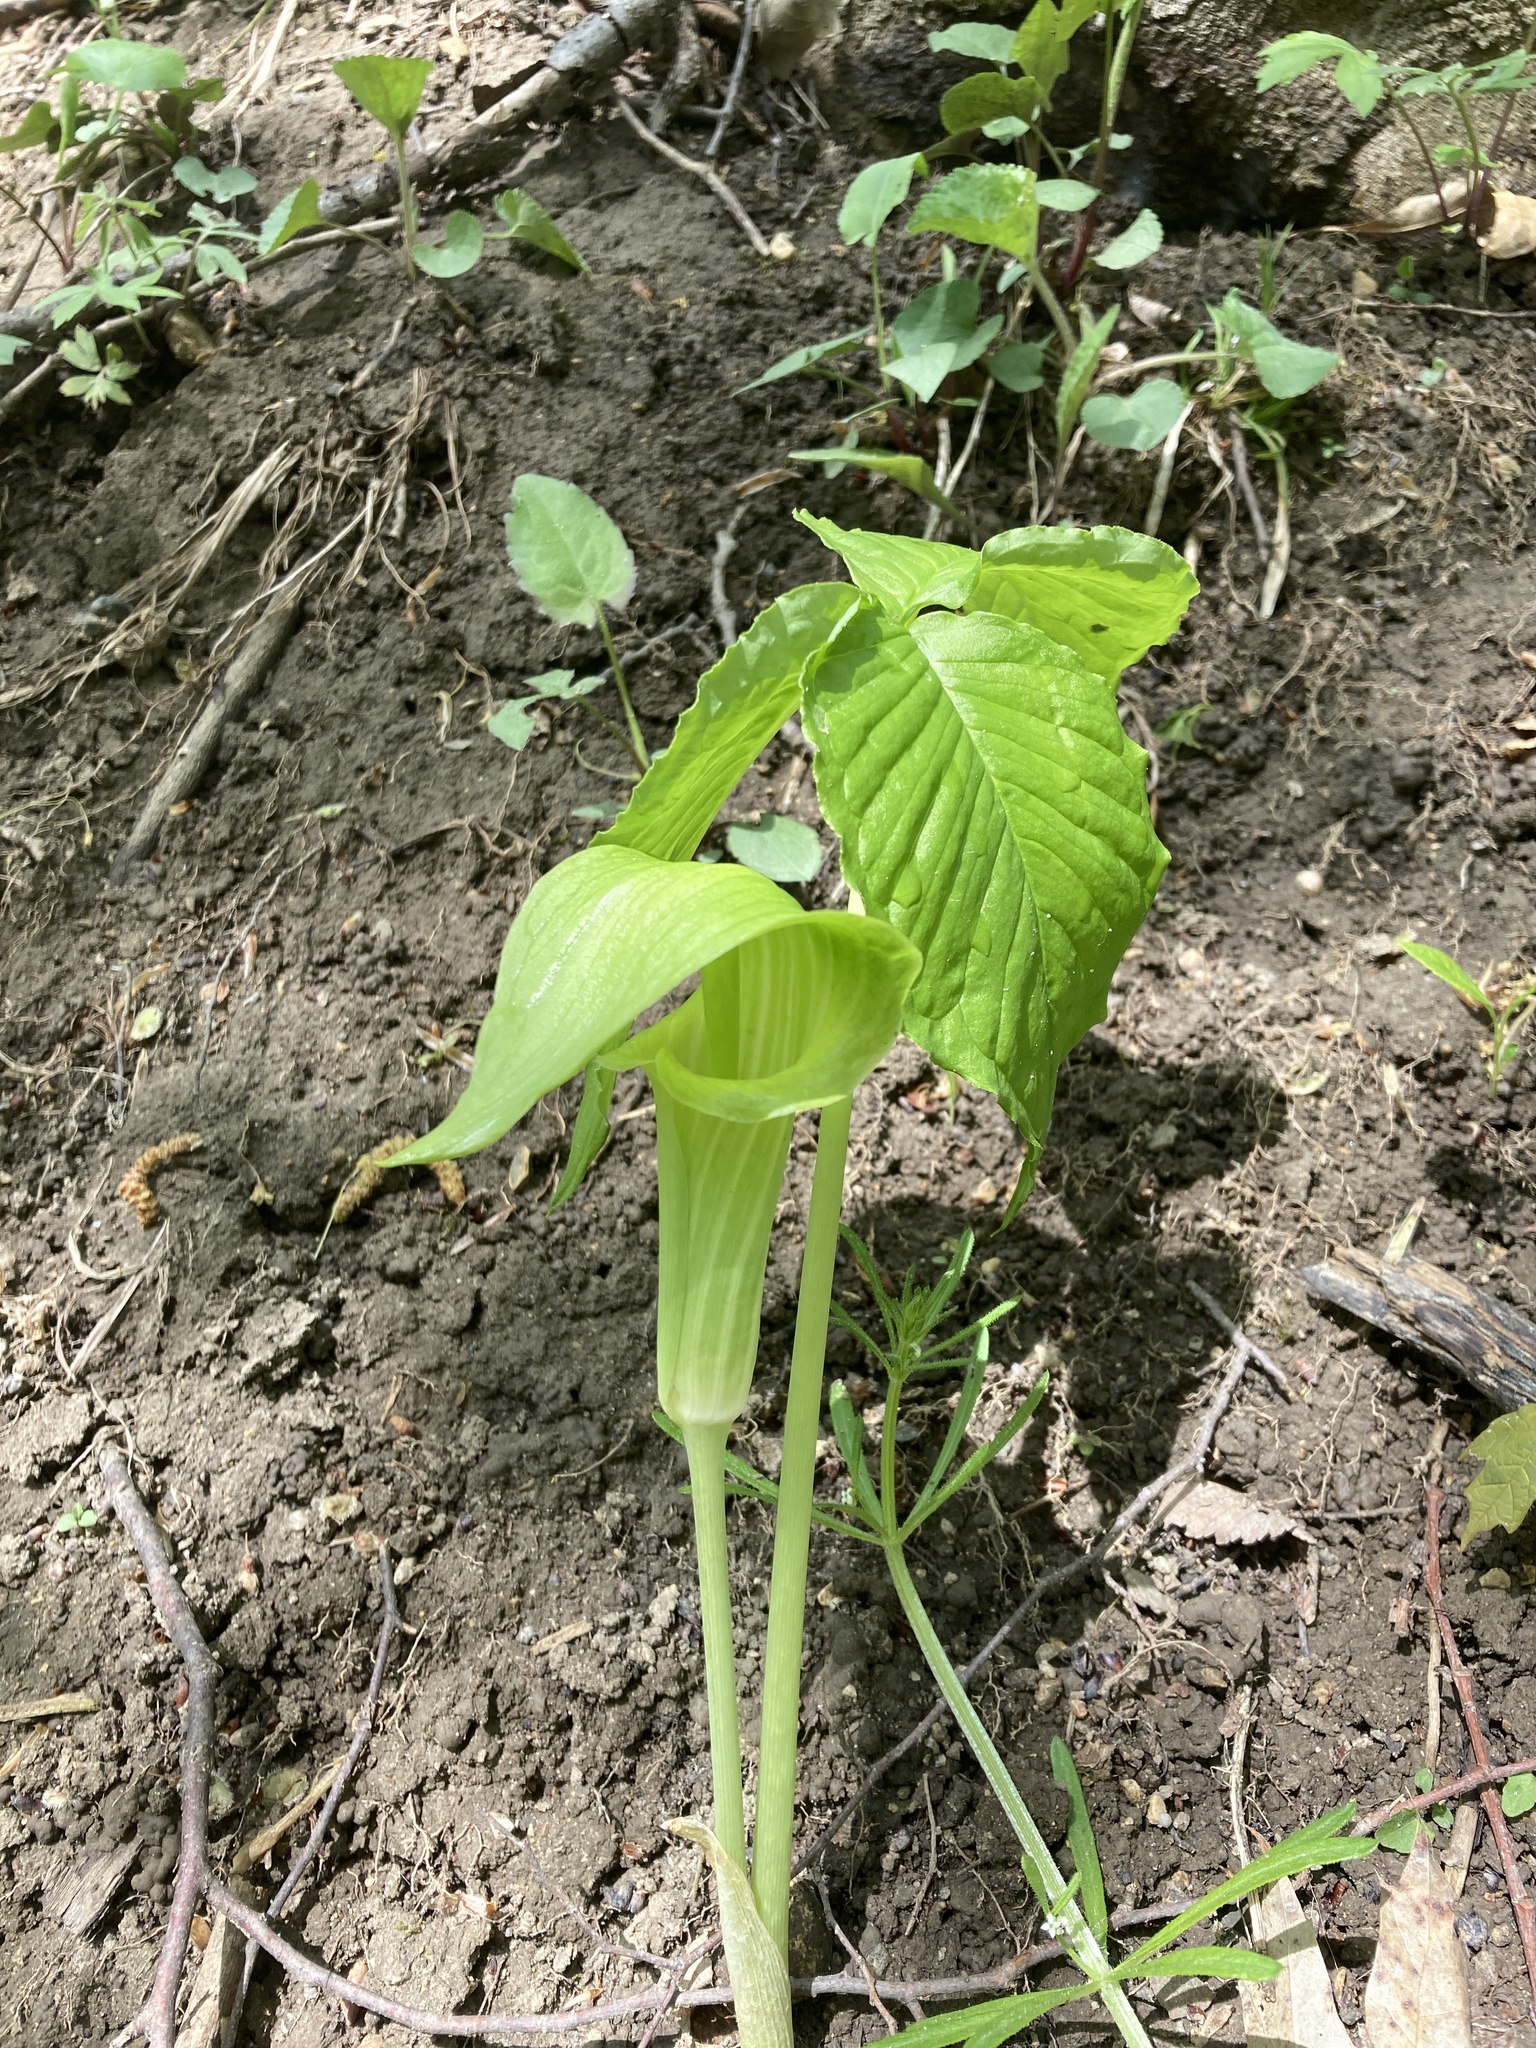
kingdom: Plantae
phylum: Tracheophyta
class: Liliopsida
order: Alismatales
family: Araceae
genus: Arisaema
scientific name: Arisaema triphyllum
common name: Jack-in-the-pulpit
